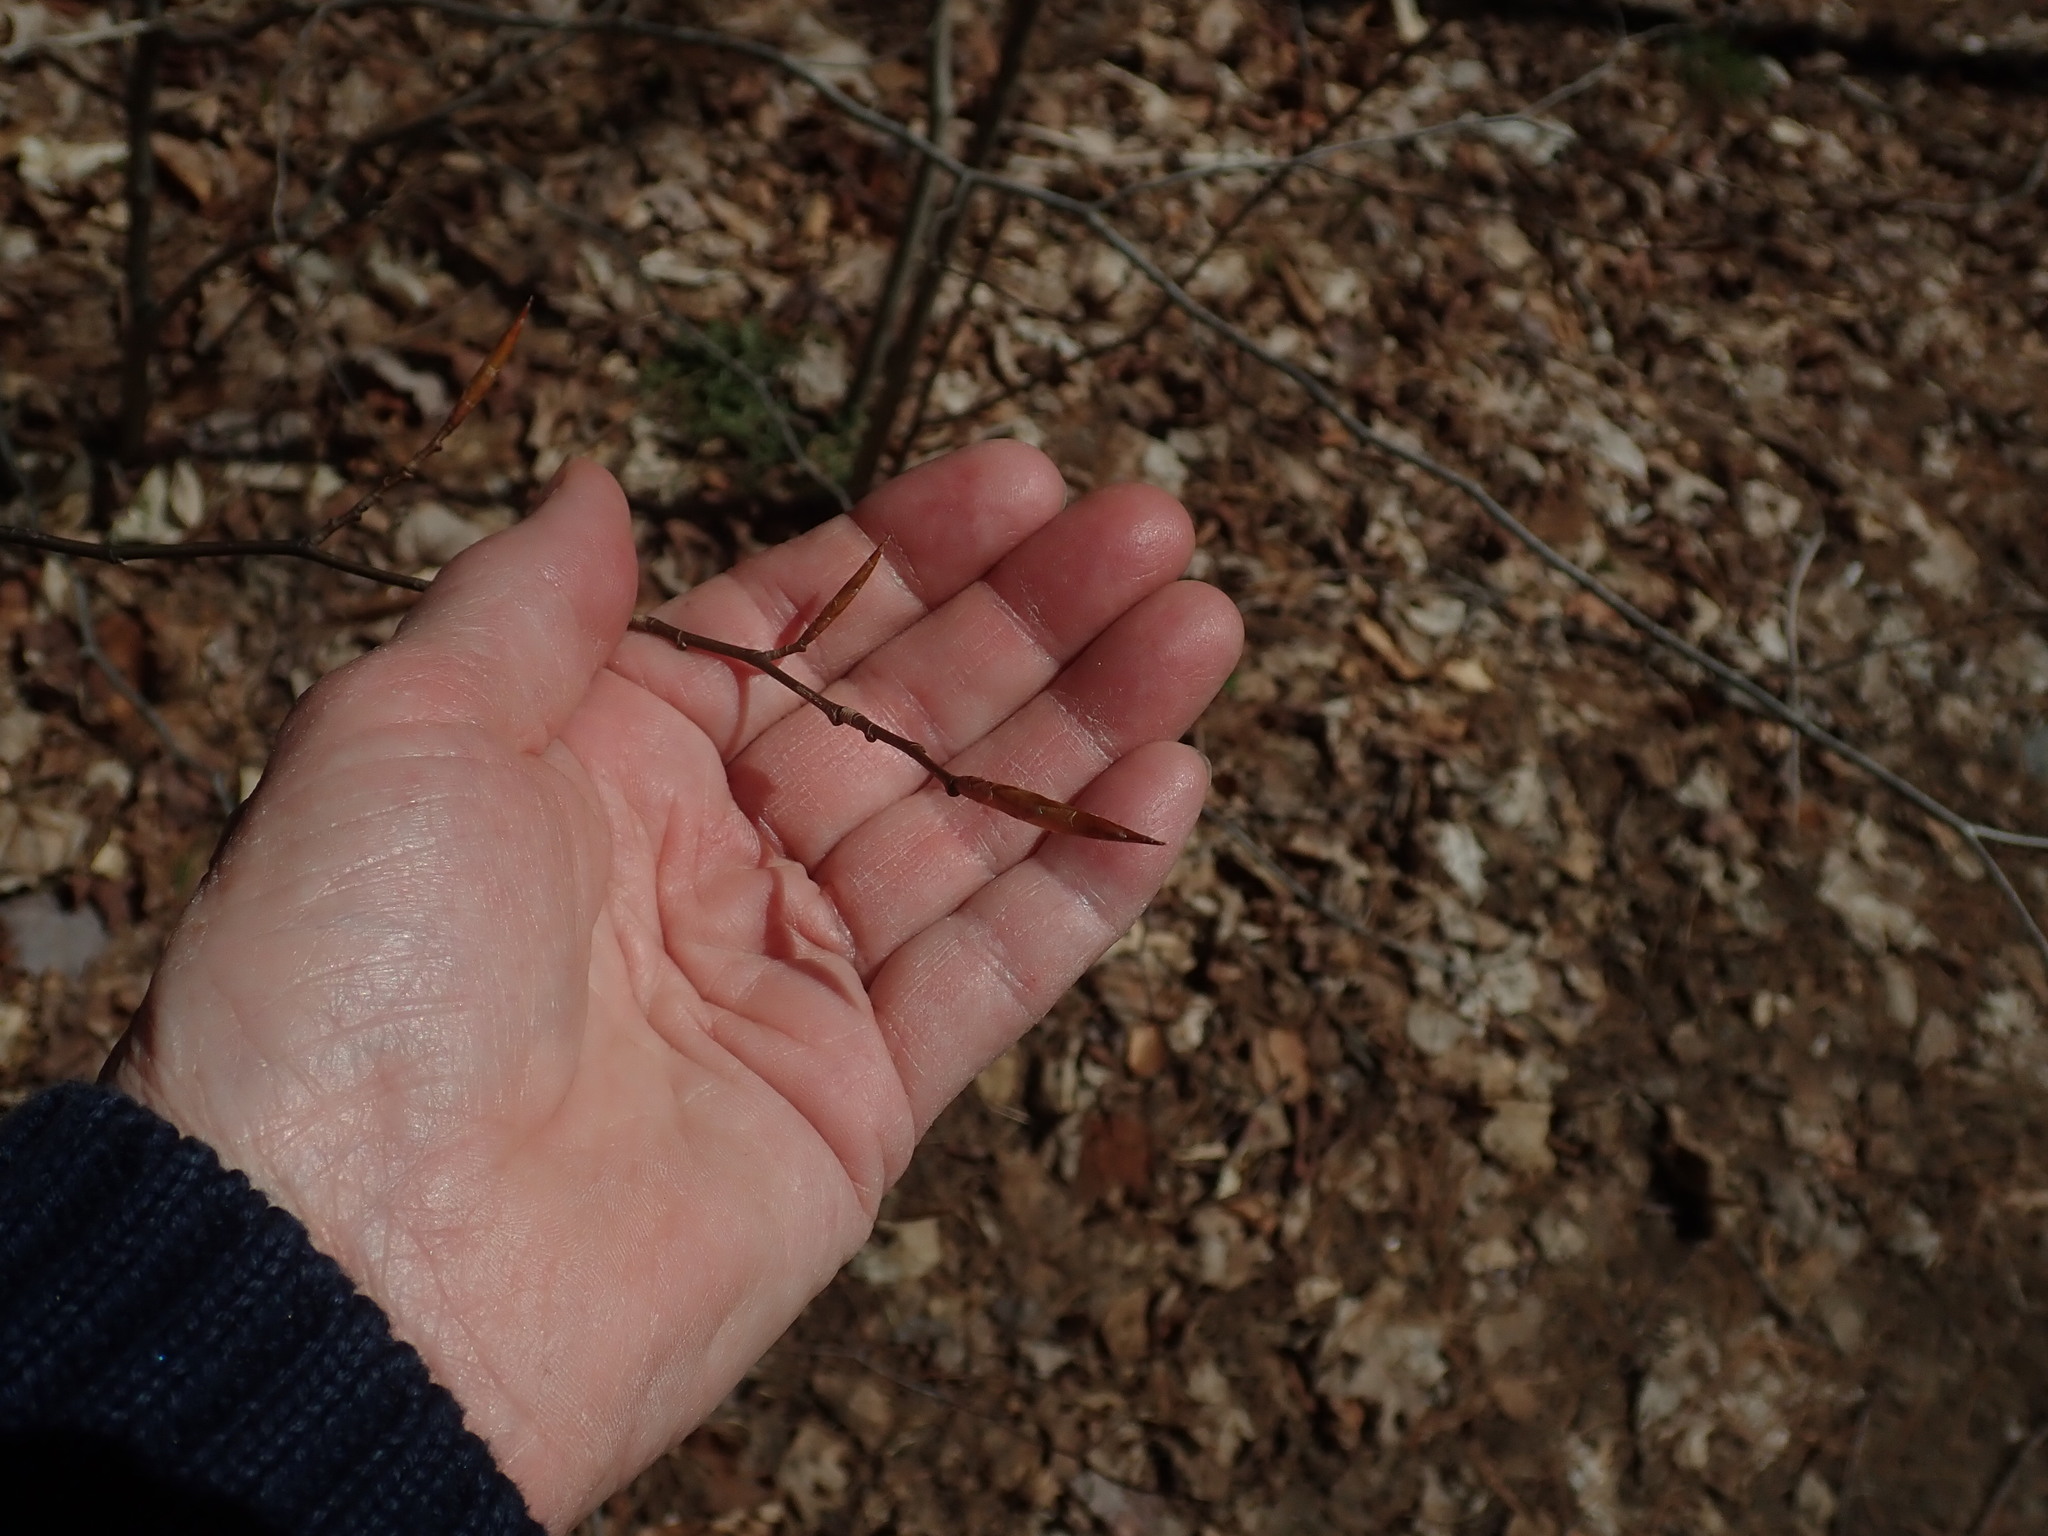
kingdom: Plantae
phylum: Tracheophyta
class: Magnoliopsida
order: Fagales
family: Fagaceae
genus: Fagus
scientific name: Fagus grandifolia
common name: American beech
